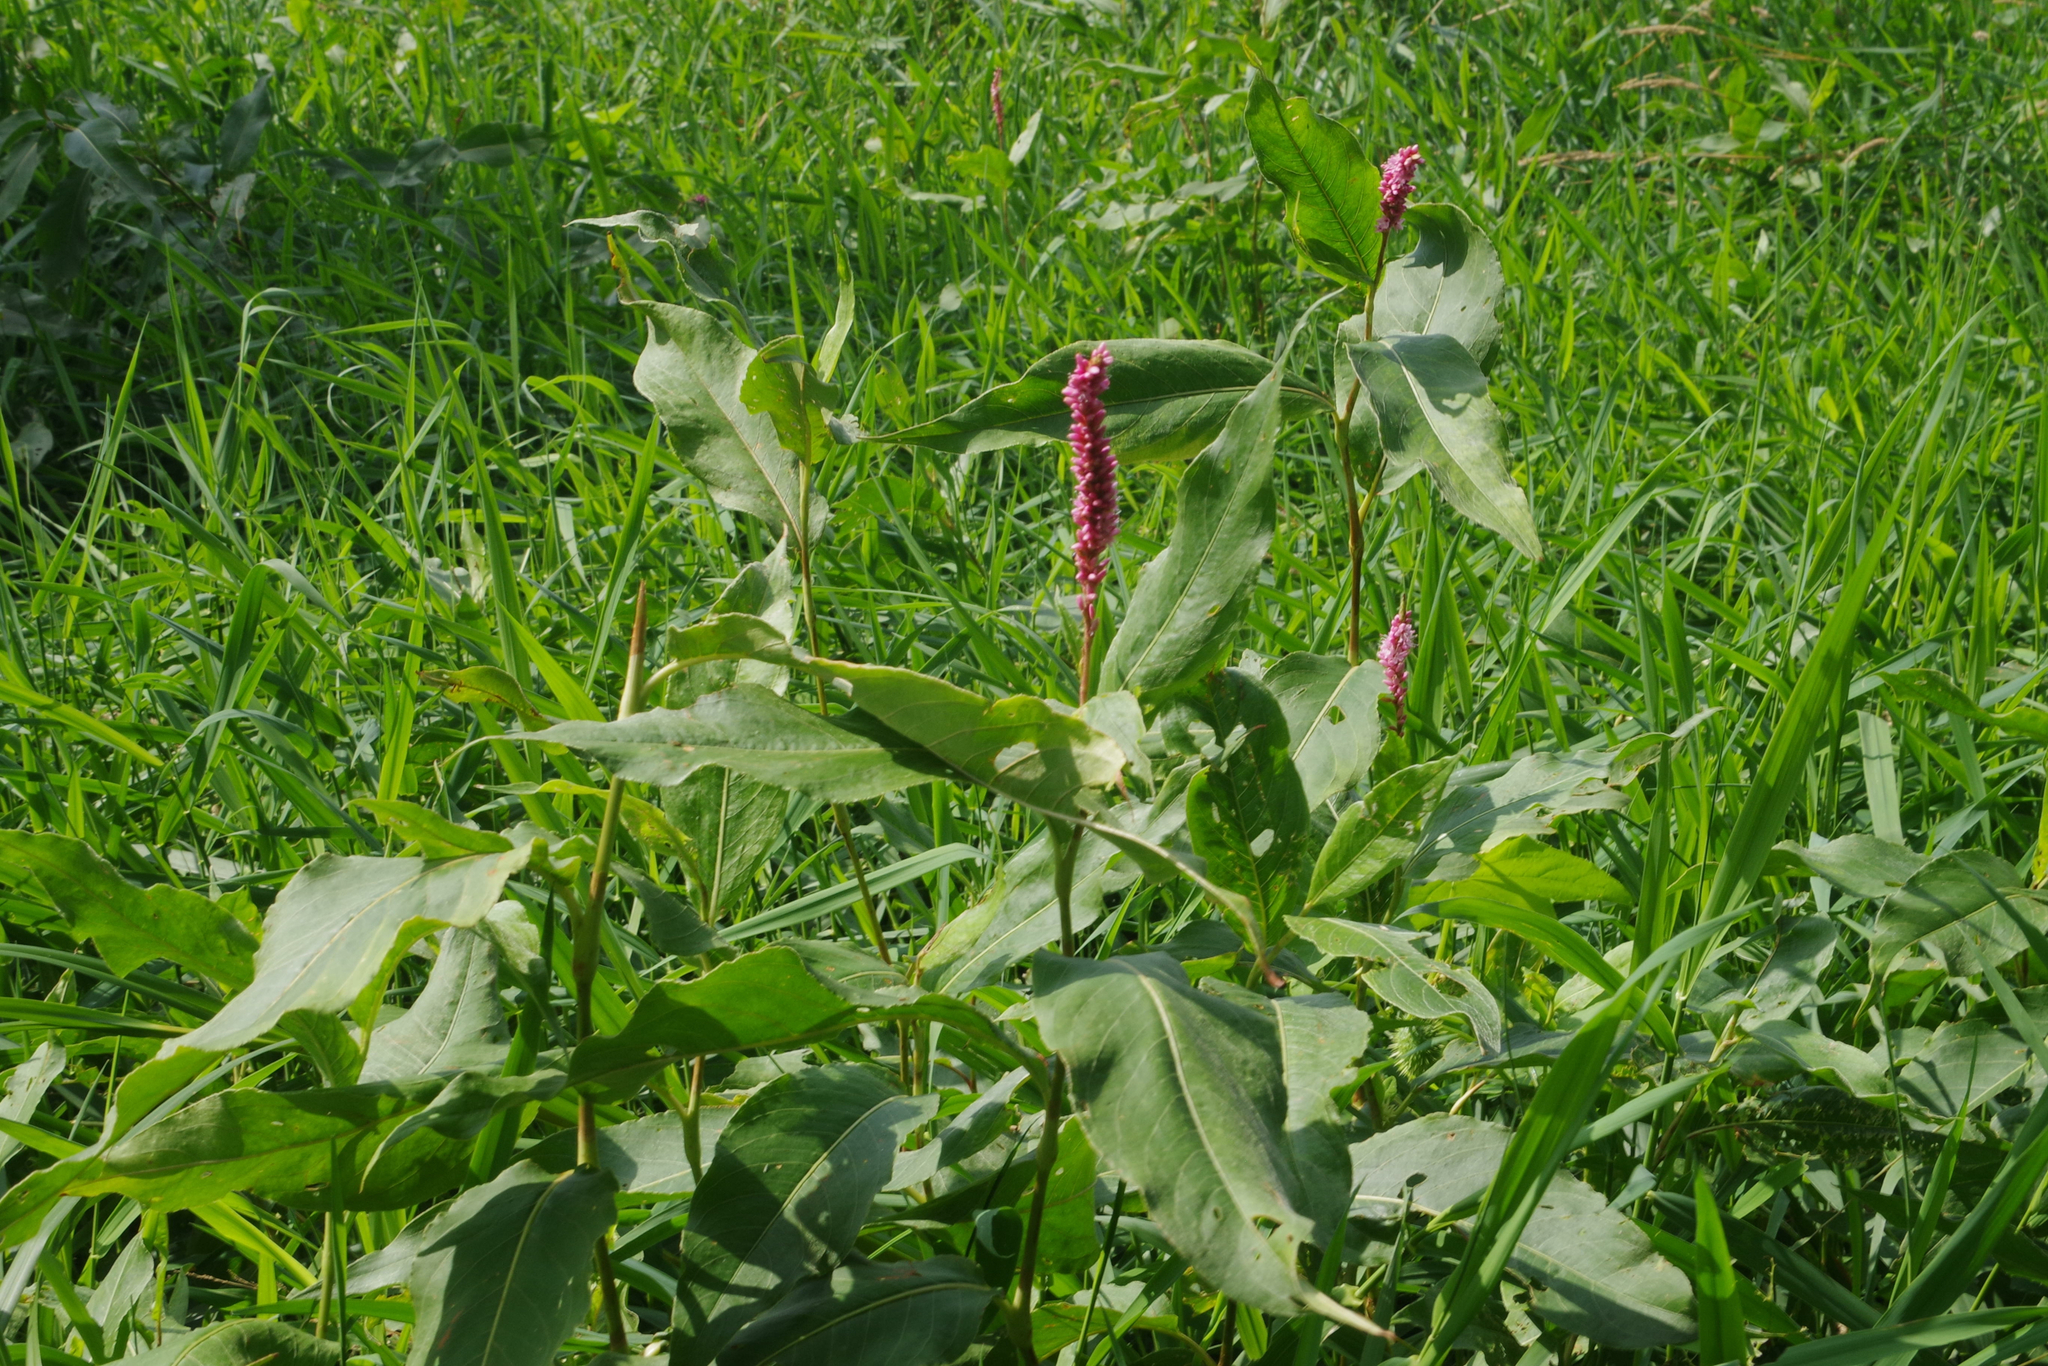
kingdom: Plantae
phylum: Tracheophyta
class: Magnoliopsida
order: Caryophyllales
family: Polygonaceae
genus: Persicaria
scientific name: Persicaria amphibia
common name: Amphibious bistort
